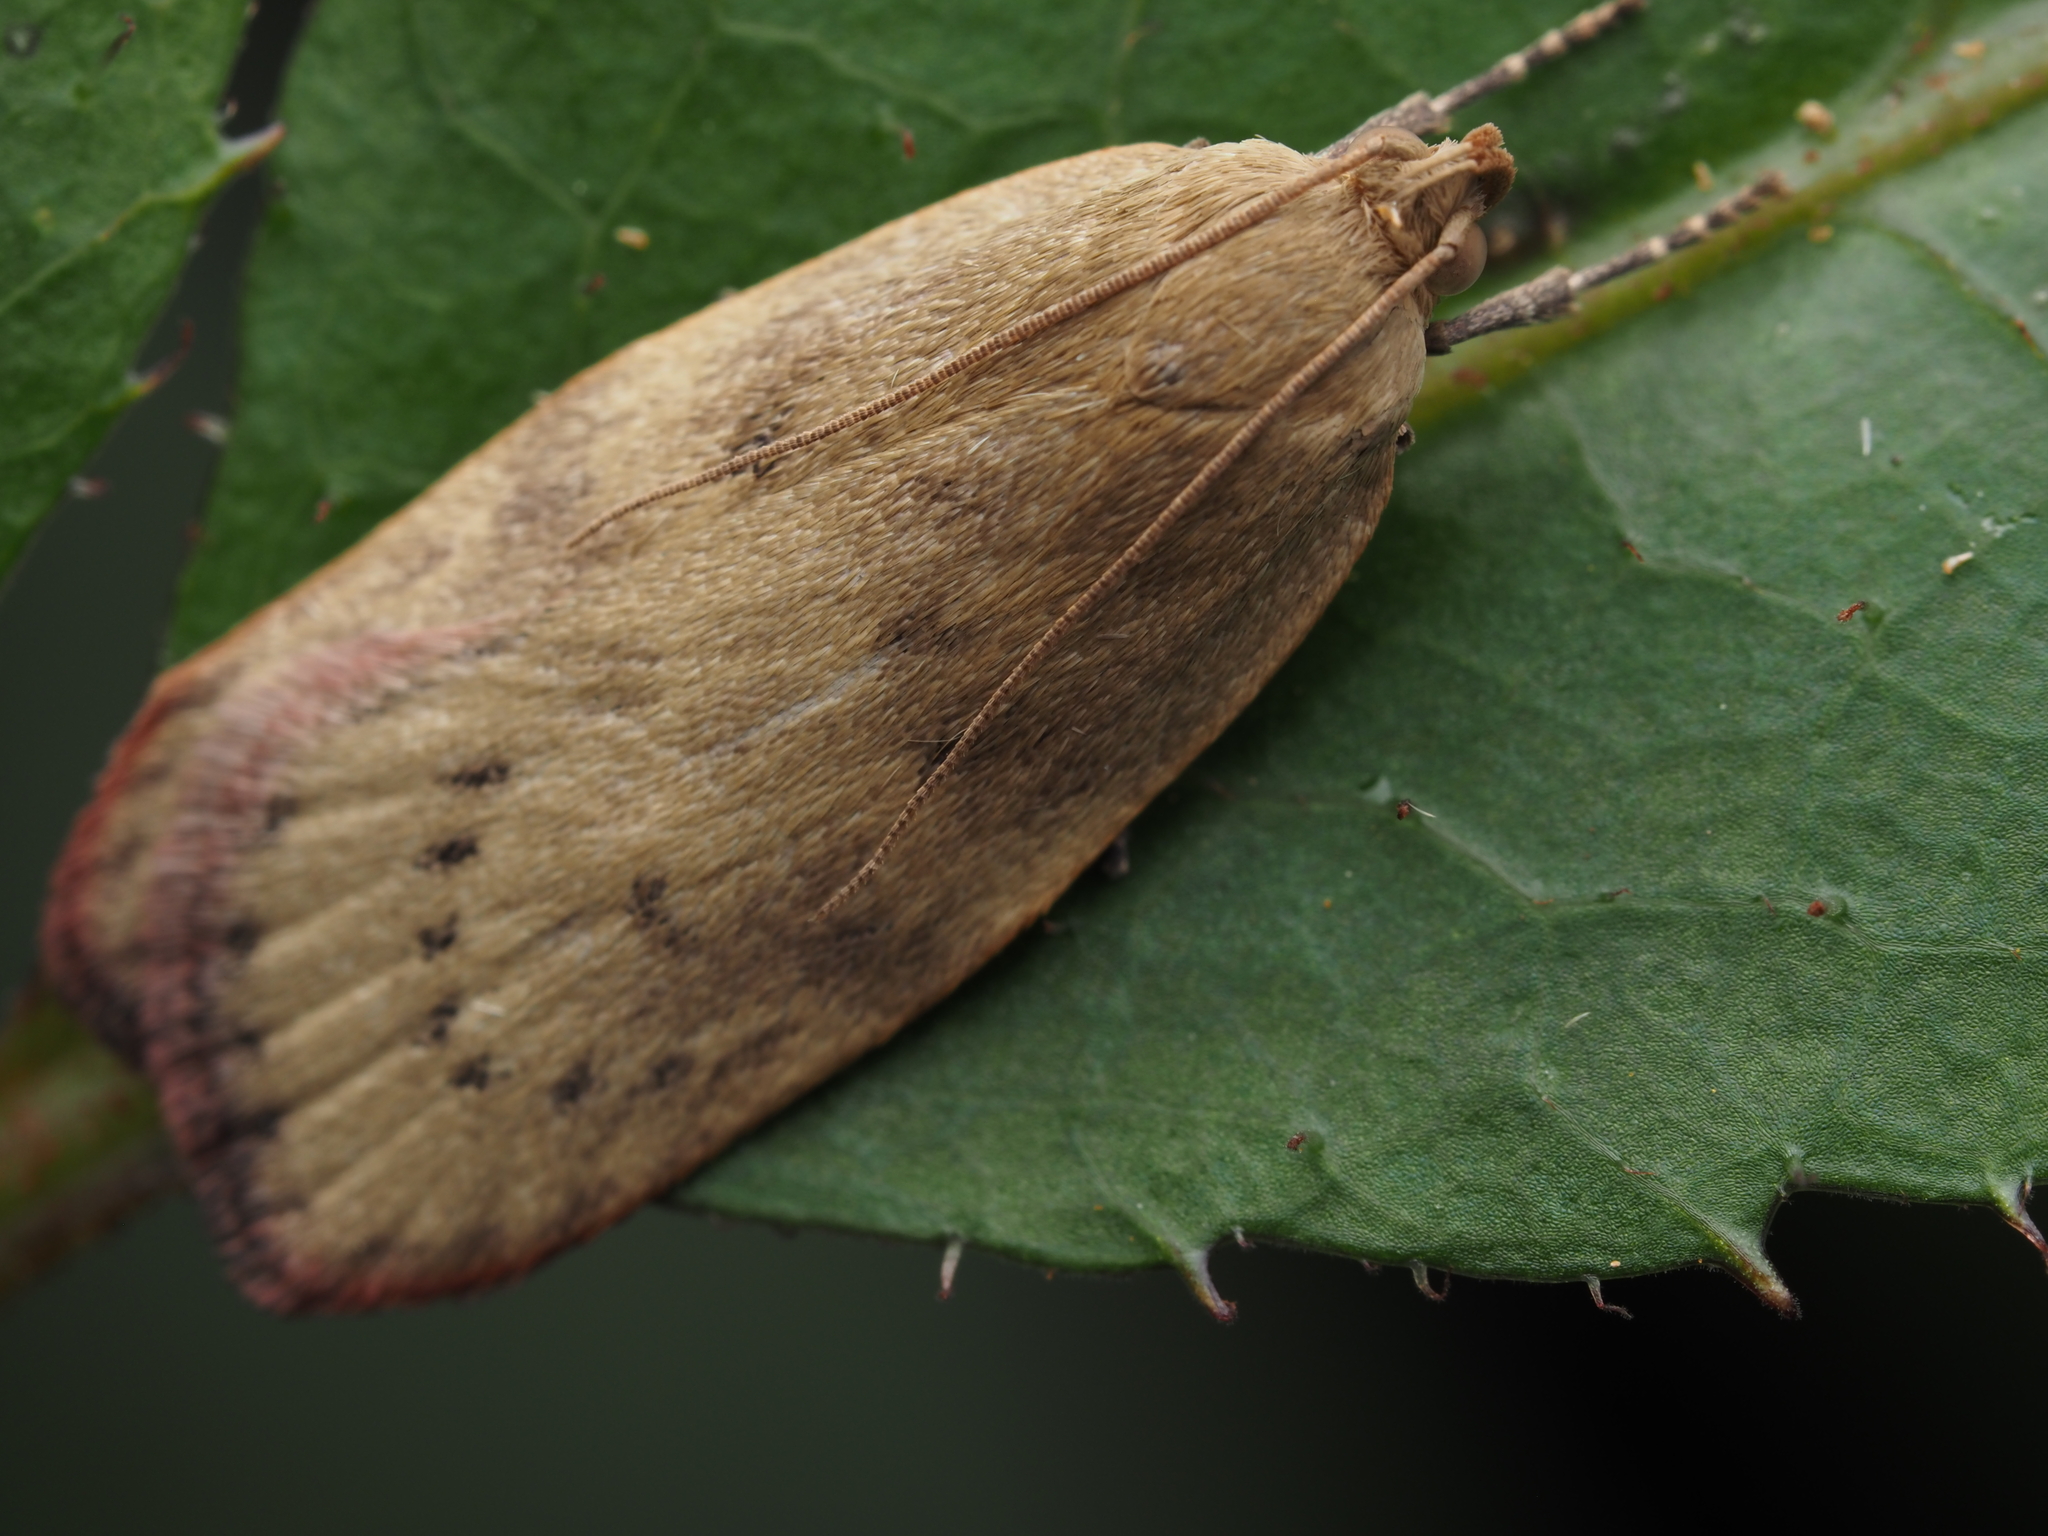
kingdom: Animalia
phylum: Arthropoda
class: Insecta
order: Lepidoptera
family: Depressariidae
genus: Phaeosaces
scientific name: Phaeosaces coarctatella
